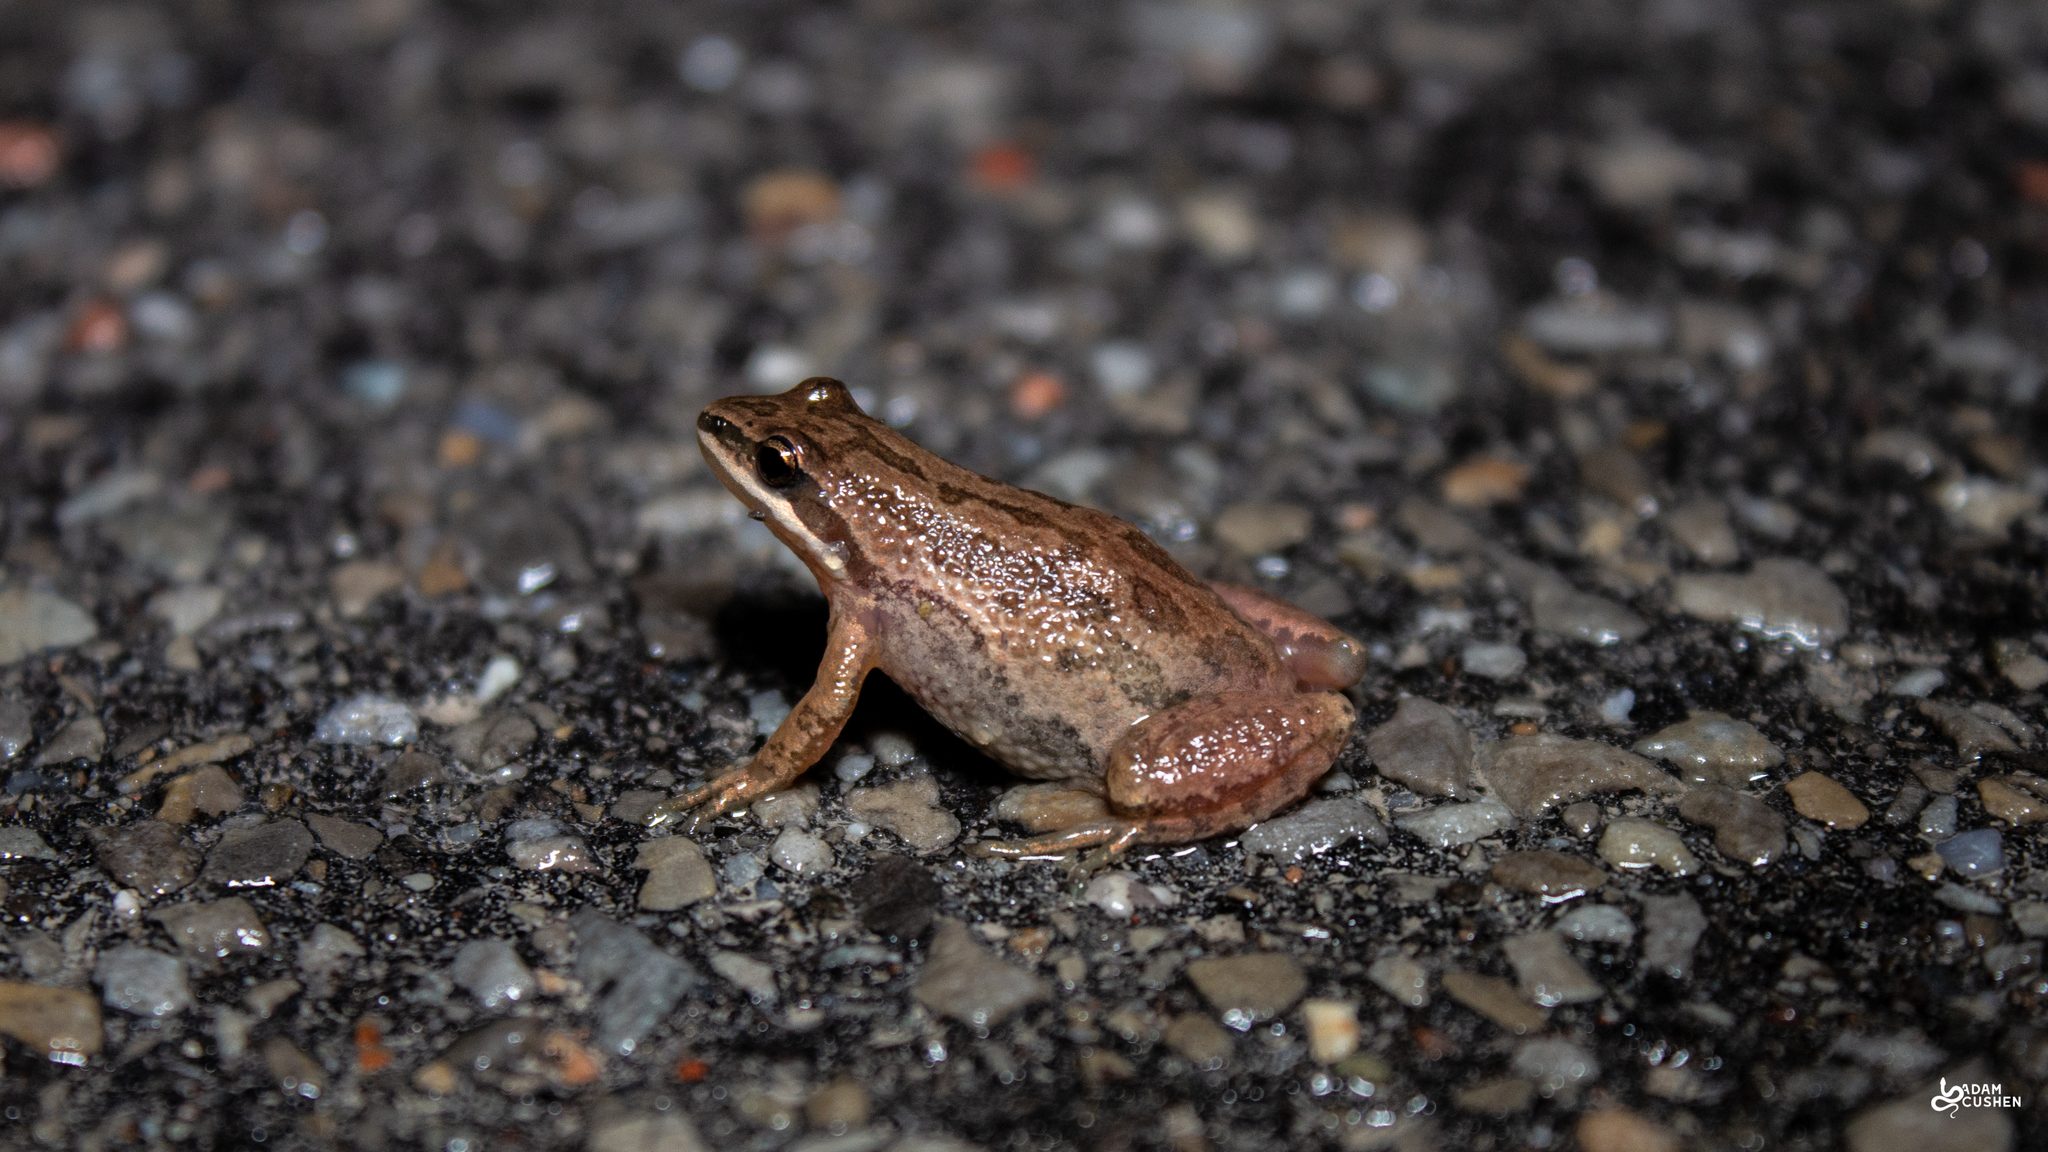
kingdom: Animalia
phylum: Chordata
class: Amphibia
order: Anura
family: Hylidae
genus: Pseudacris
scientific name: Pseudacris maculata
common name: Boreal chorus frog
